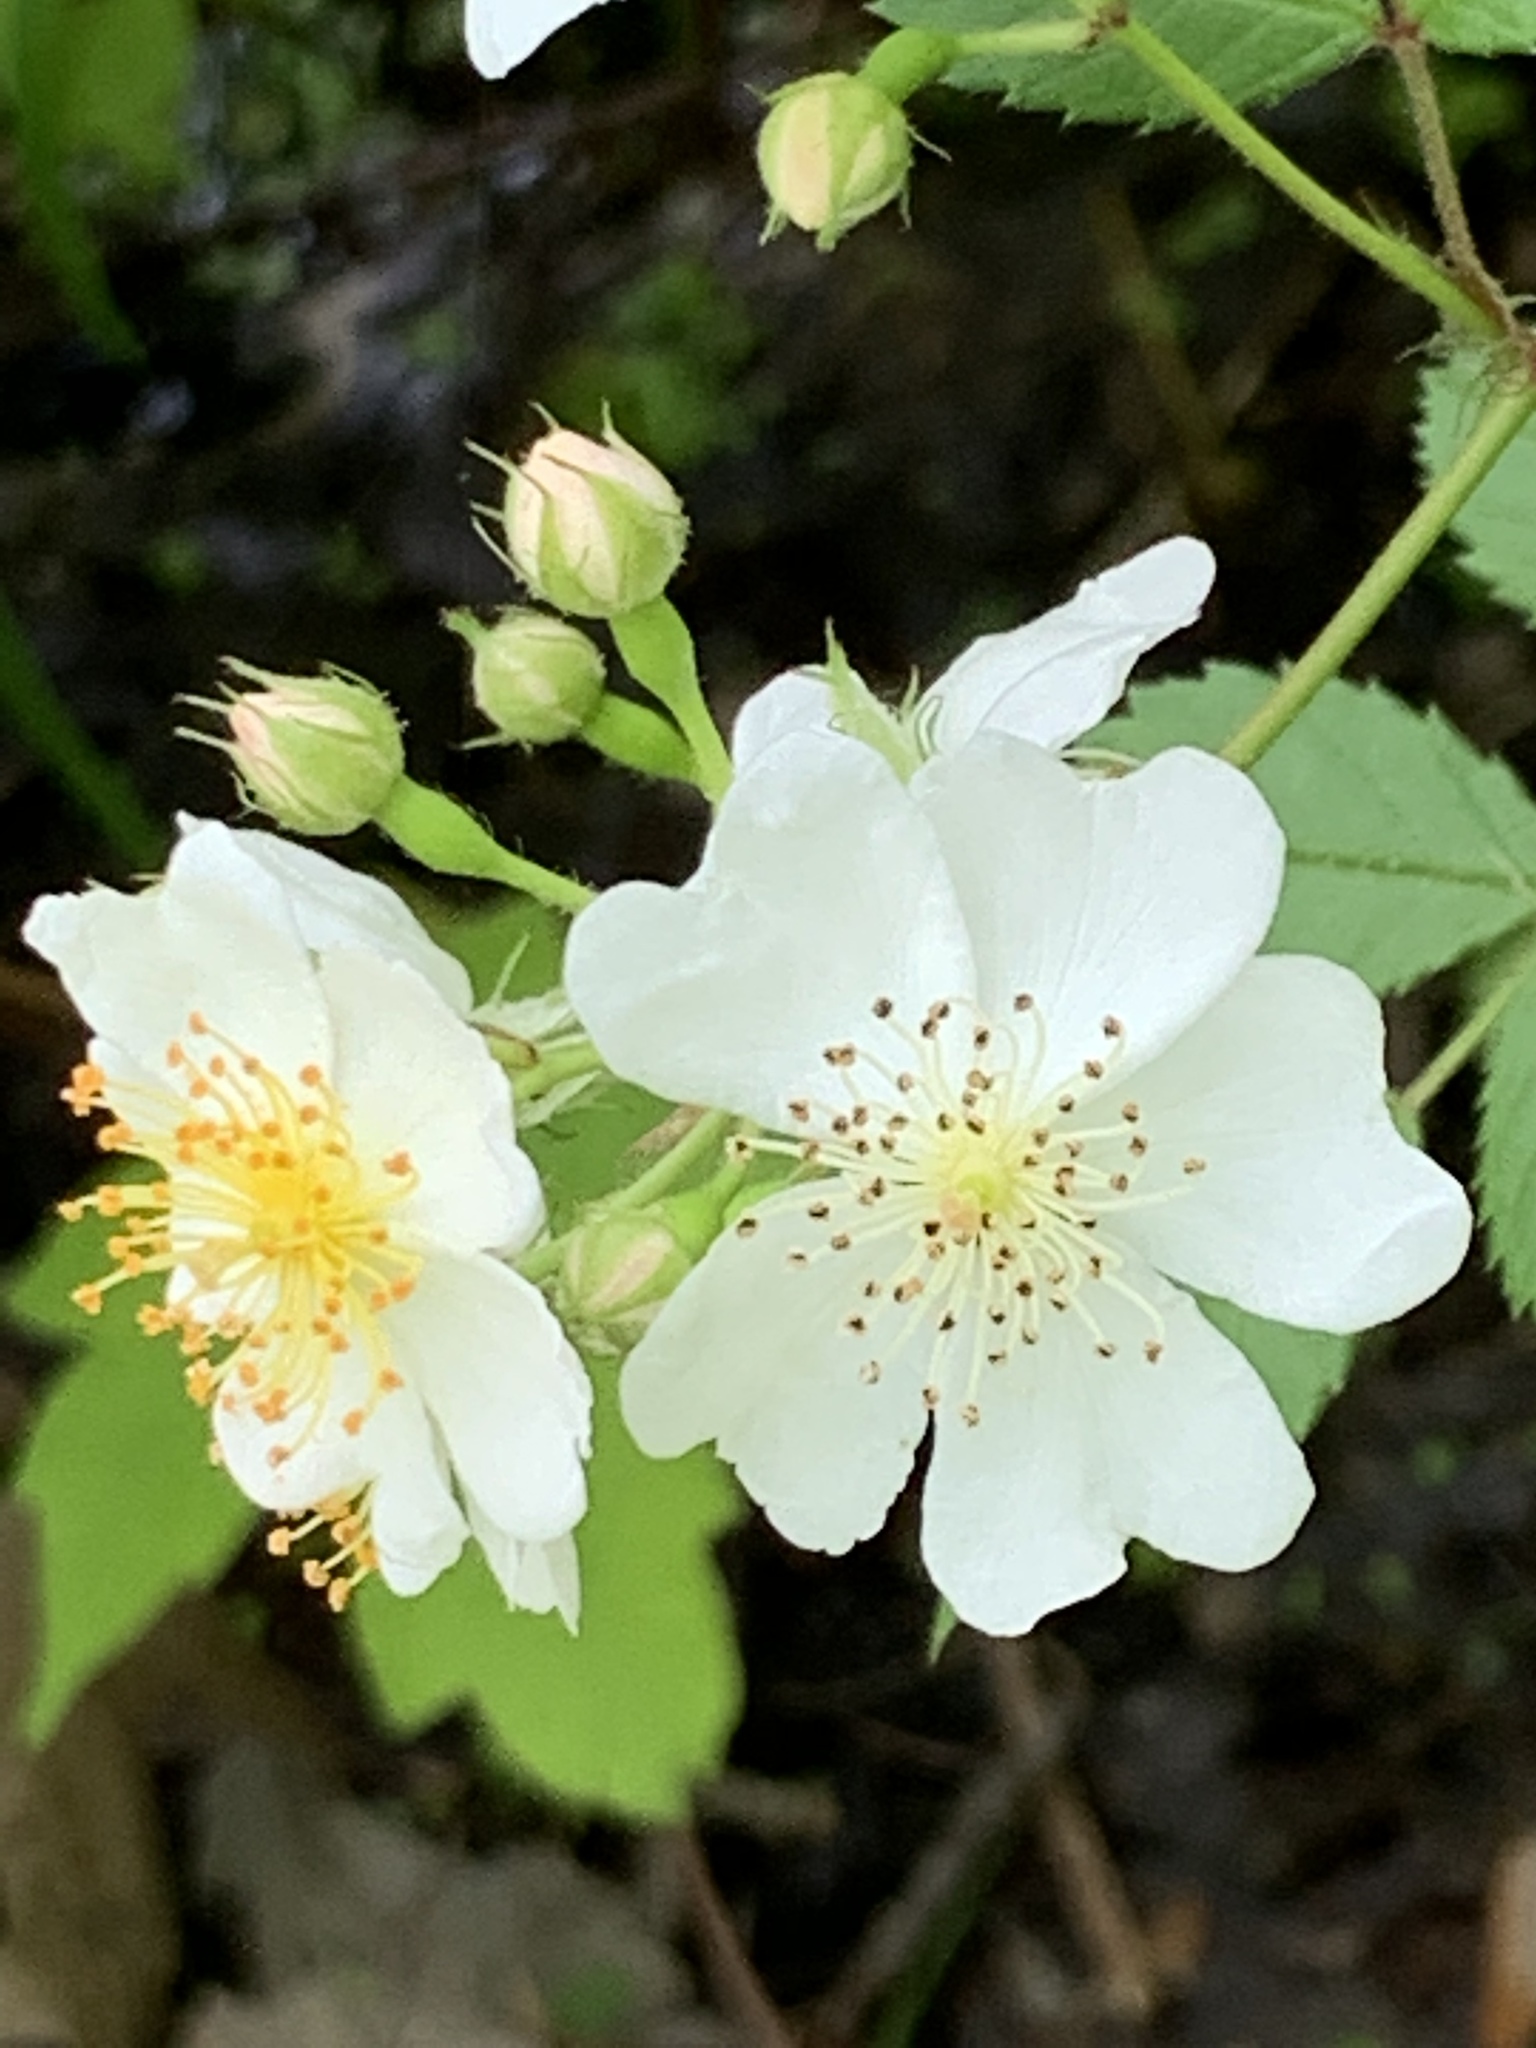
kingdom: Plantae
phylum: Tracheophyta
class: Magnoliopsida
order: Rosales
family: Rosaceae
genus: Rosa
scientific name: Rosa multiflora
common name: Multiflora rose
